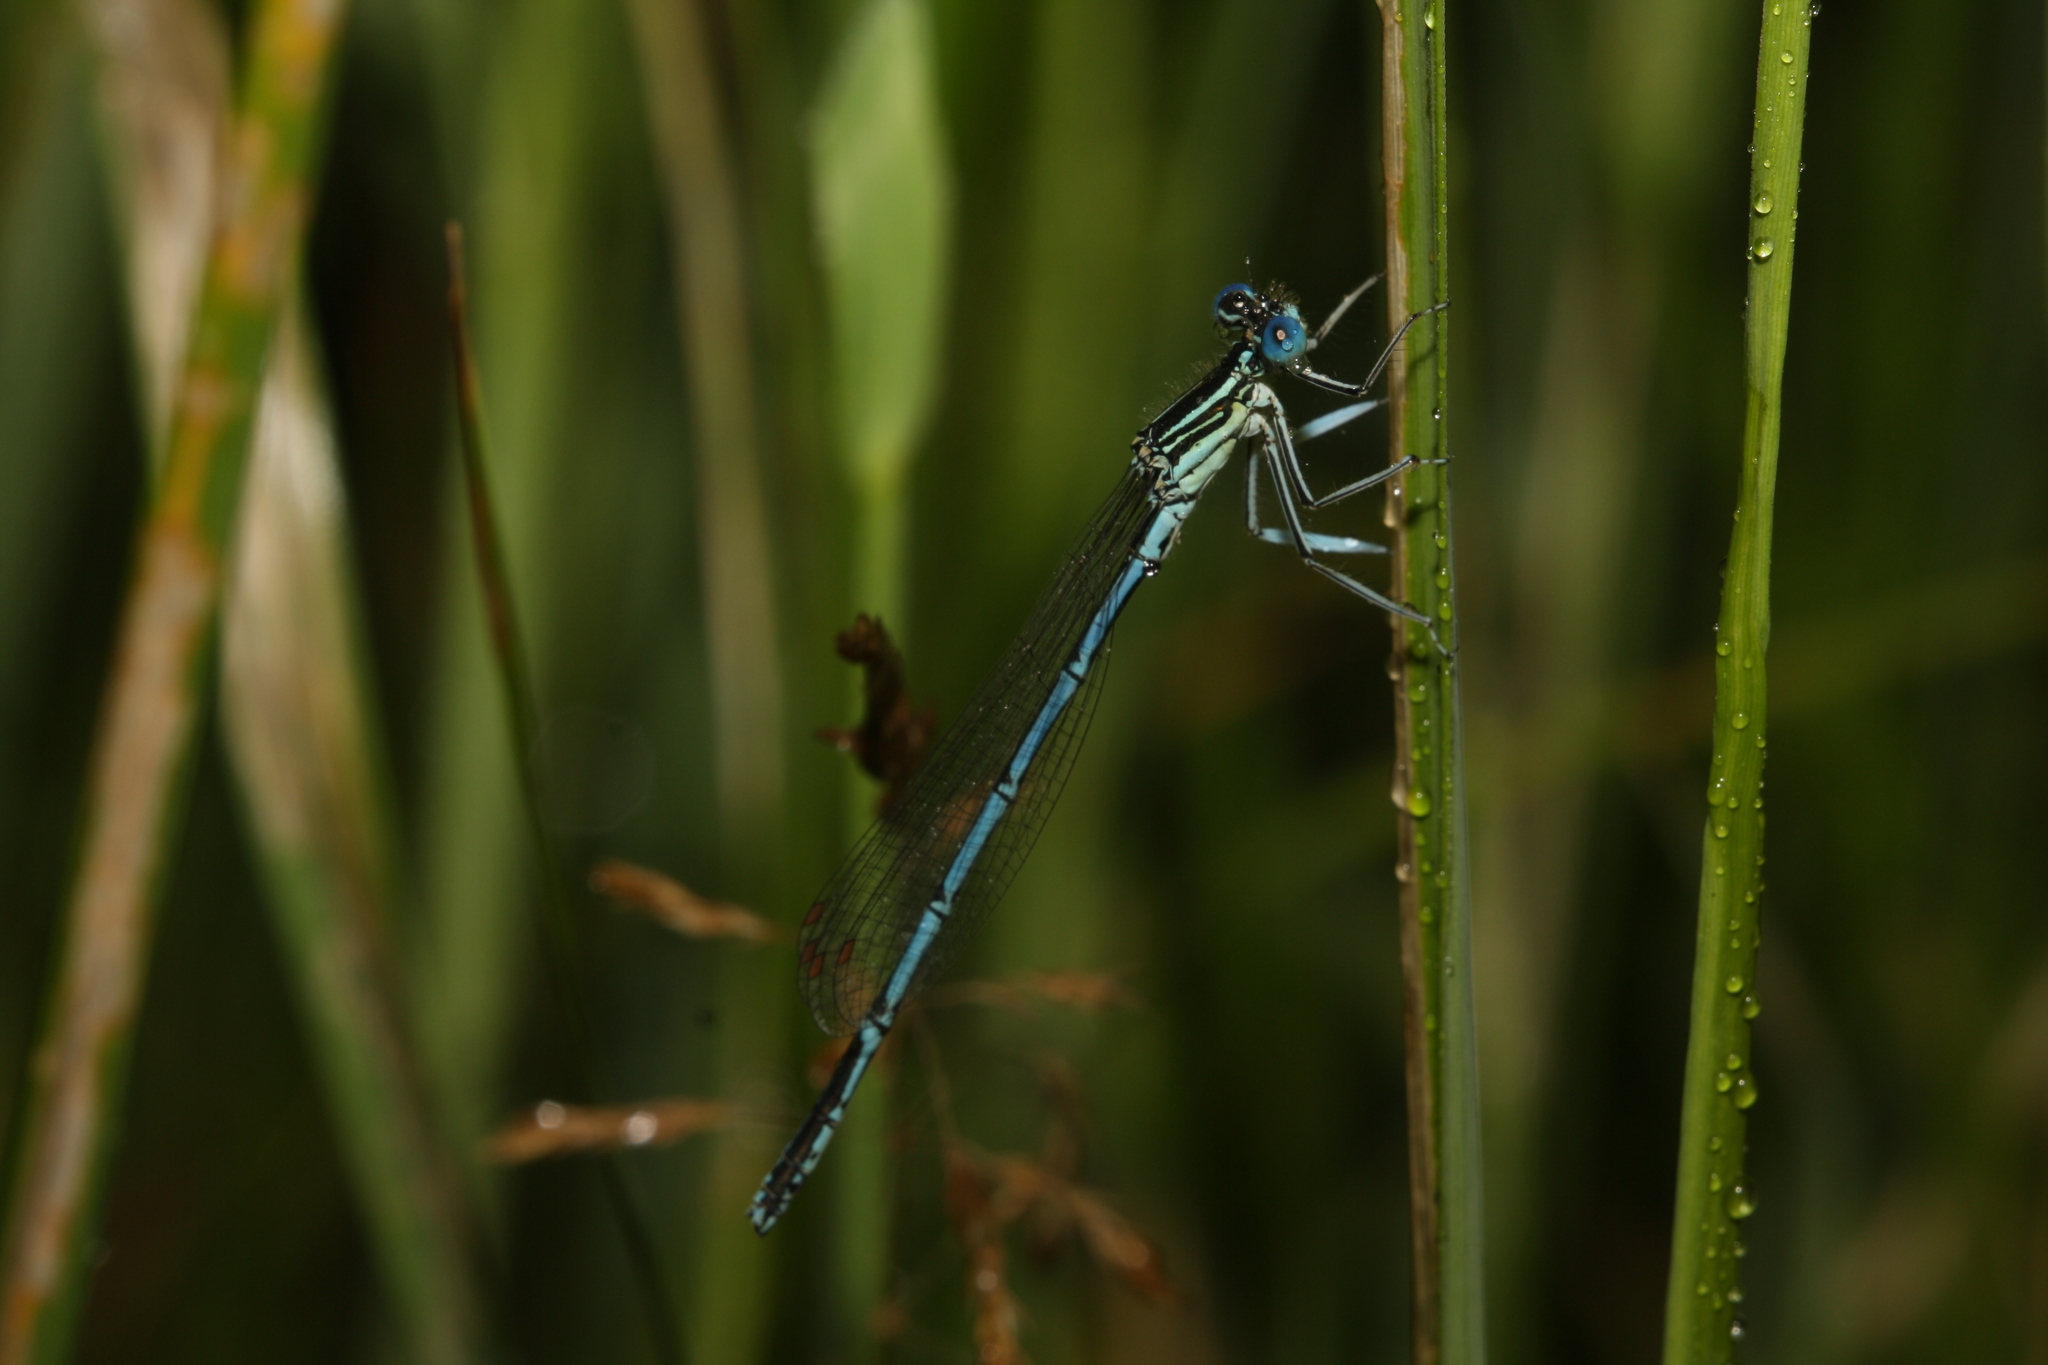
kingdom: Animalia
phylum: Arthropoda
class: Insecta
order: Odonata
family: Platycnemididae
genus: Platycnemis
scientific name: Platycnemis pennipes
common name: White-legged damselfly
